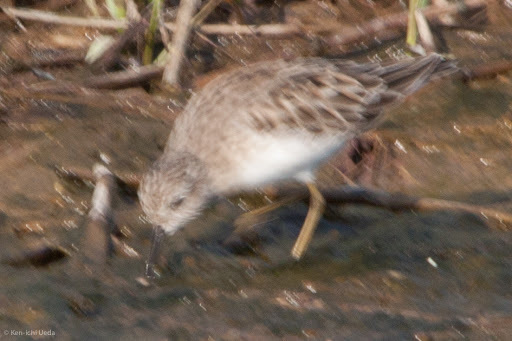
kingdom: Animalia
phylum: Chordata
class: Aves
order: Charadriiformes
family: Scolopacidae
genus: Calidris
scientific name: Calidris minutilla
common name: Least sandpiper
